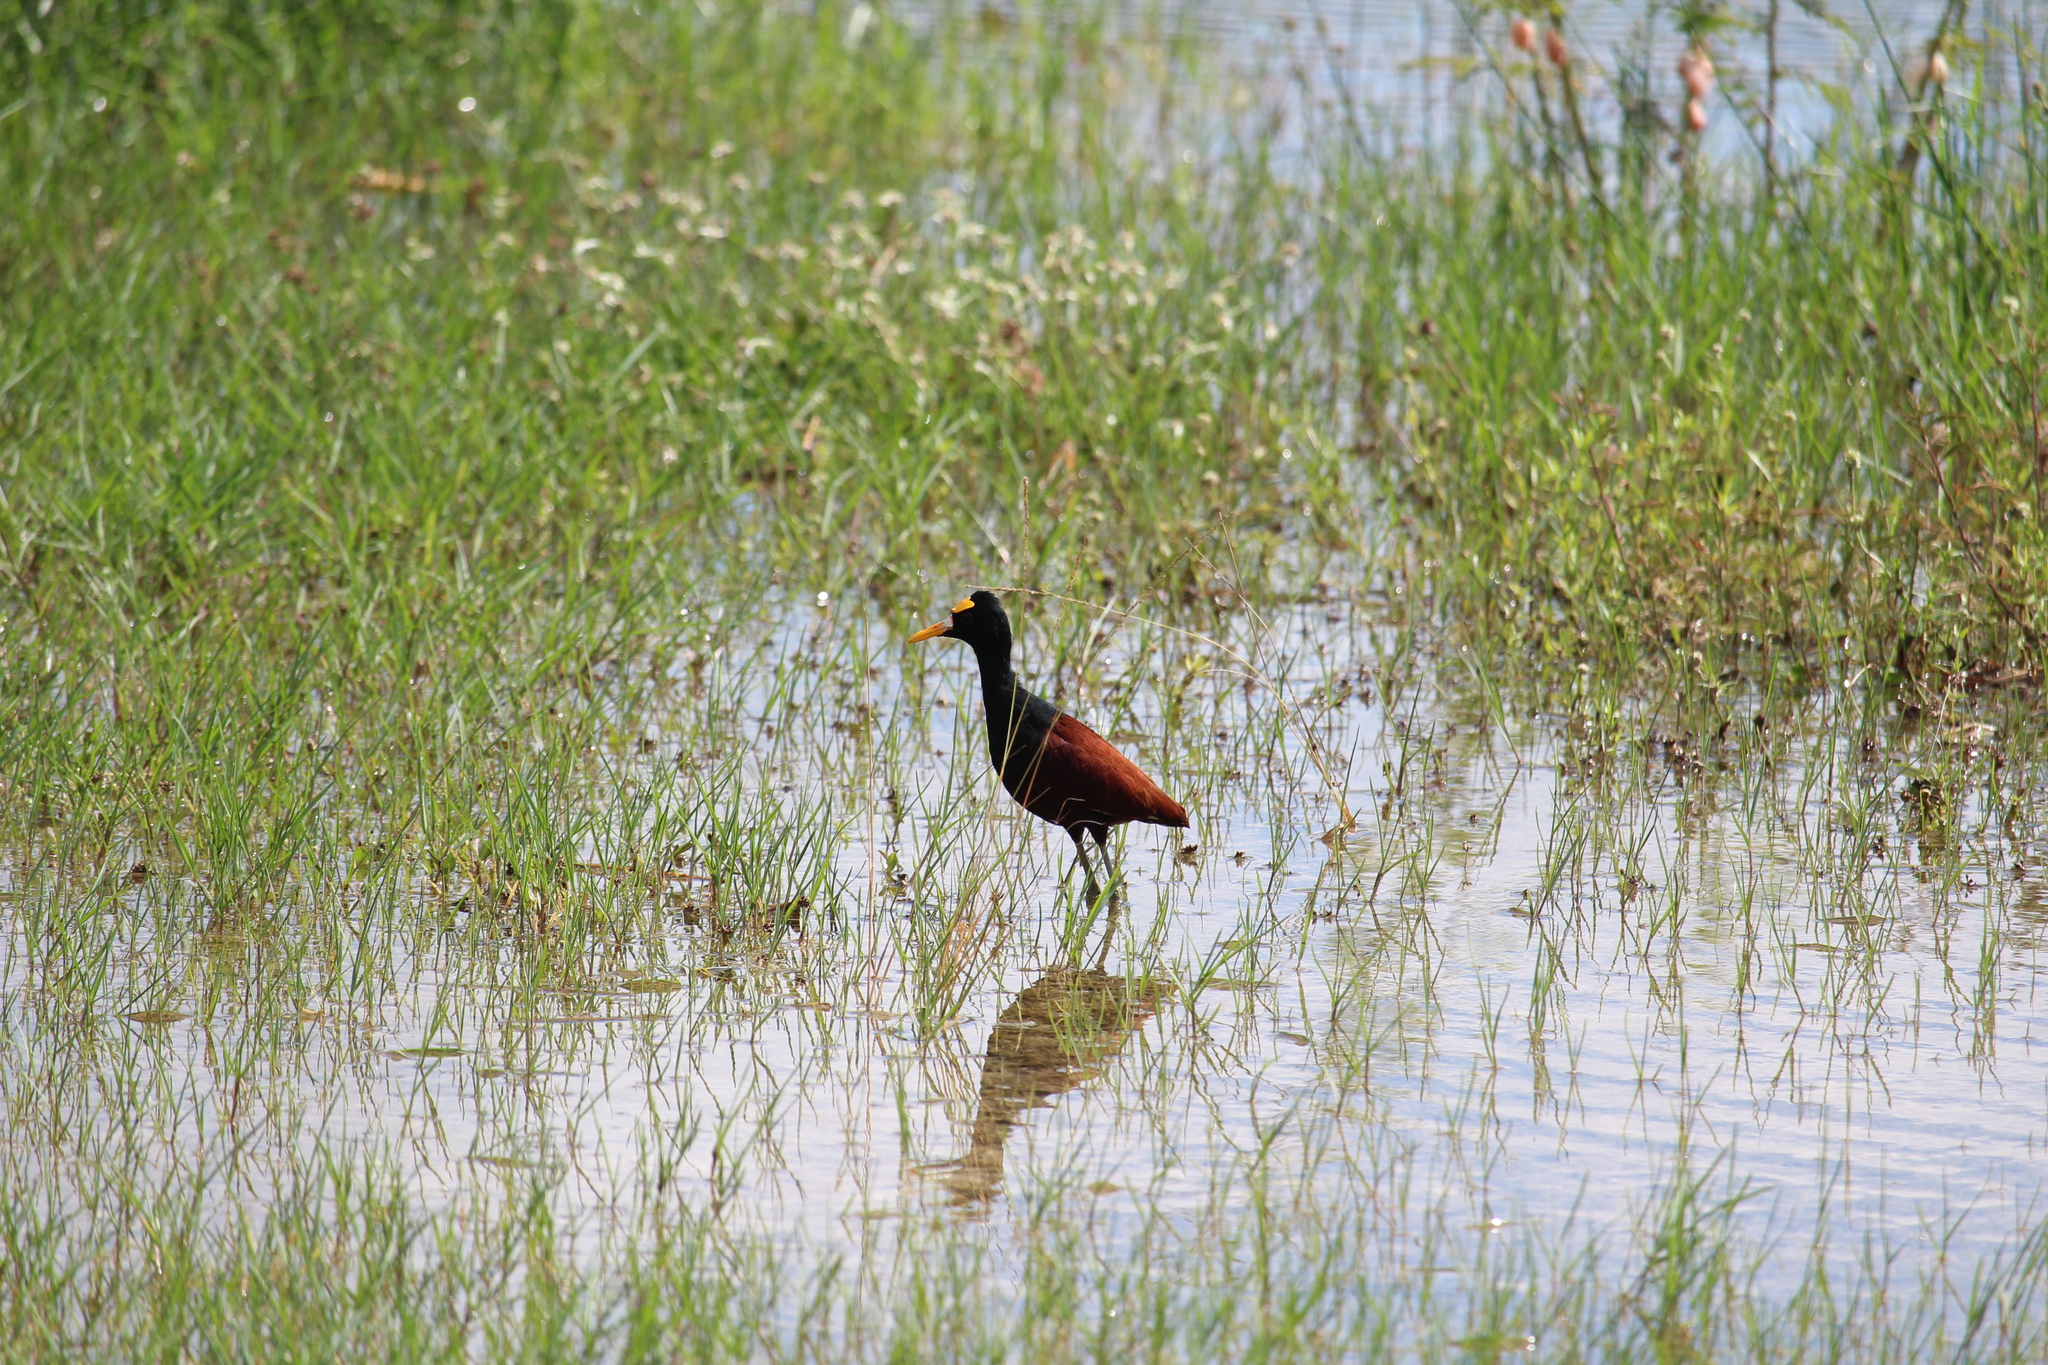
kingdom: Animalia
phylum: Chordata
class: Aves
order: Charadriiformes
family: Jacanidae
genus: Jacana
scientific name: Jacana spinosa
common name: Northern jacana
